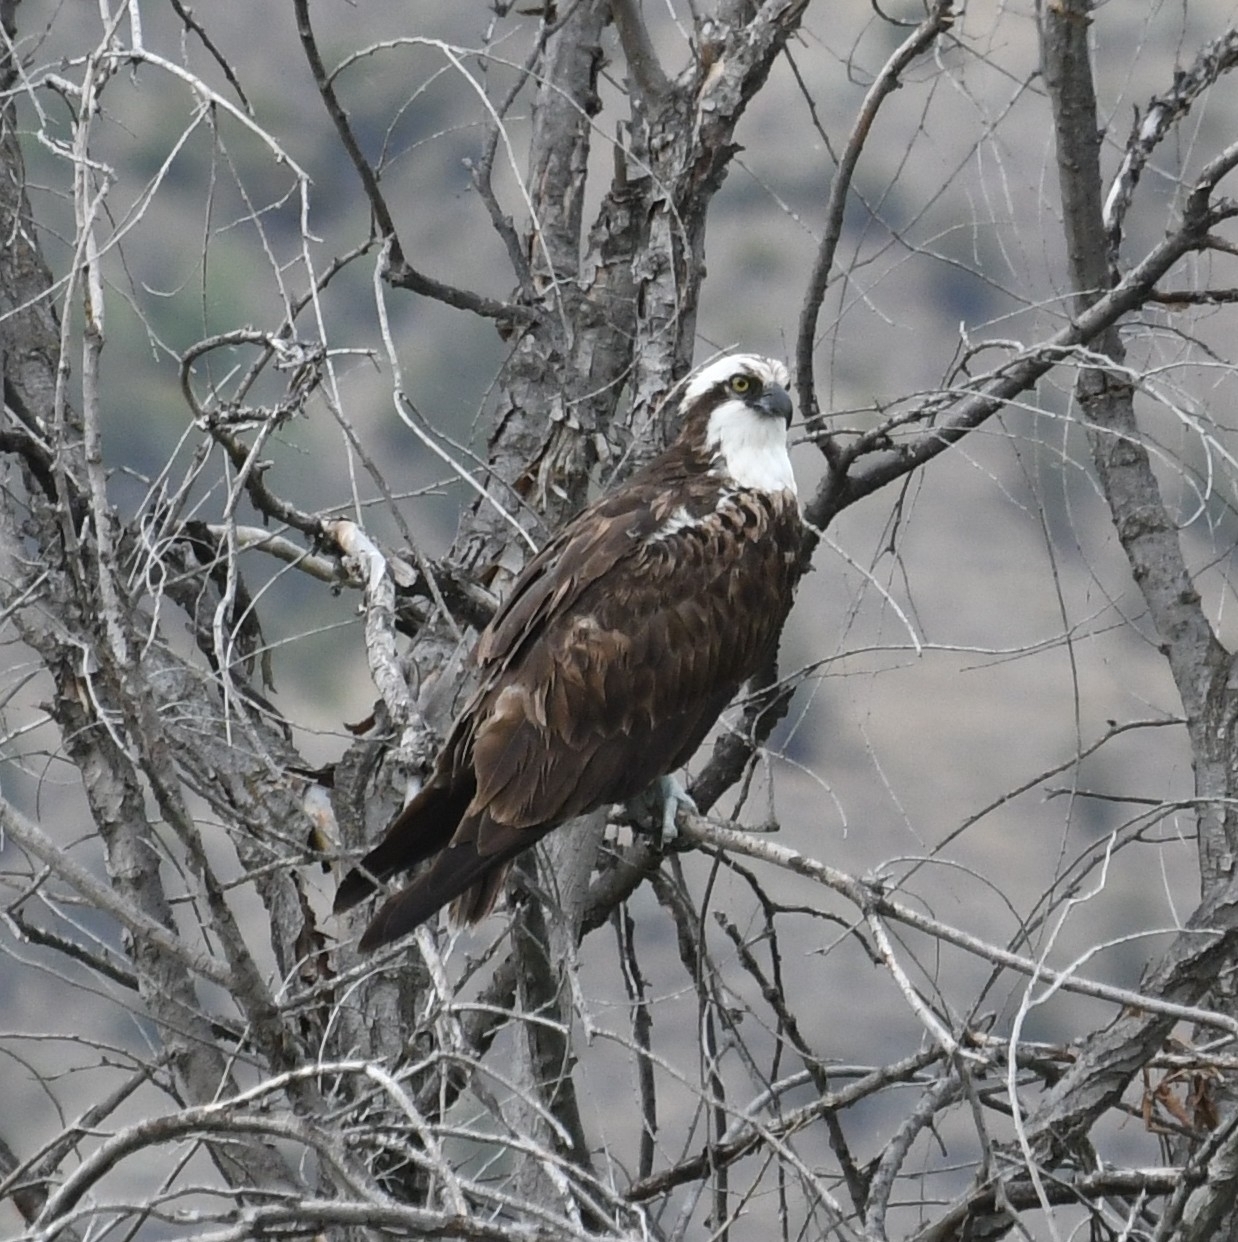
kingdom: Animalia
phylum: Chordata
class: Aves
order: Accipitriformes
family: Pandionidae
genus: Pandion
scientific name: Pandion haliaetus
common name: Osprey
